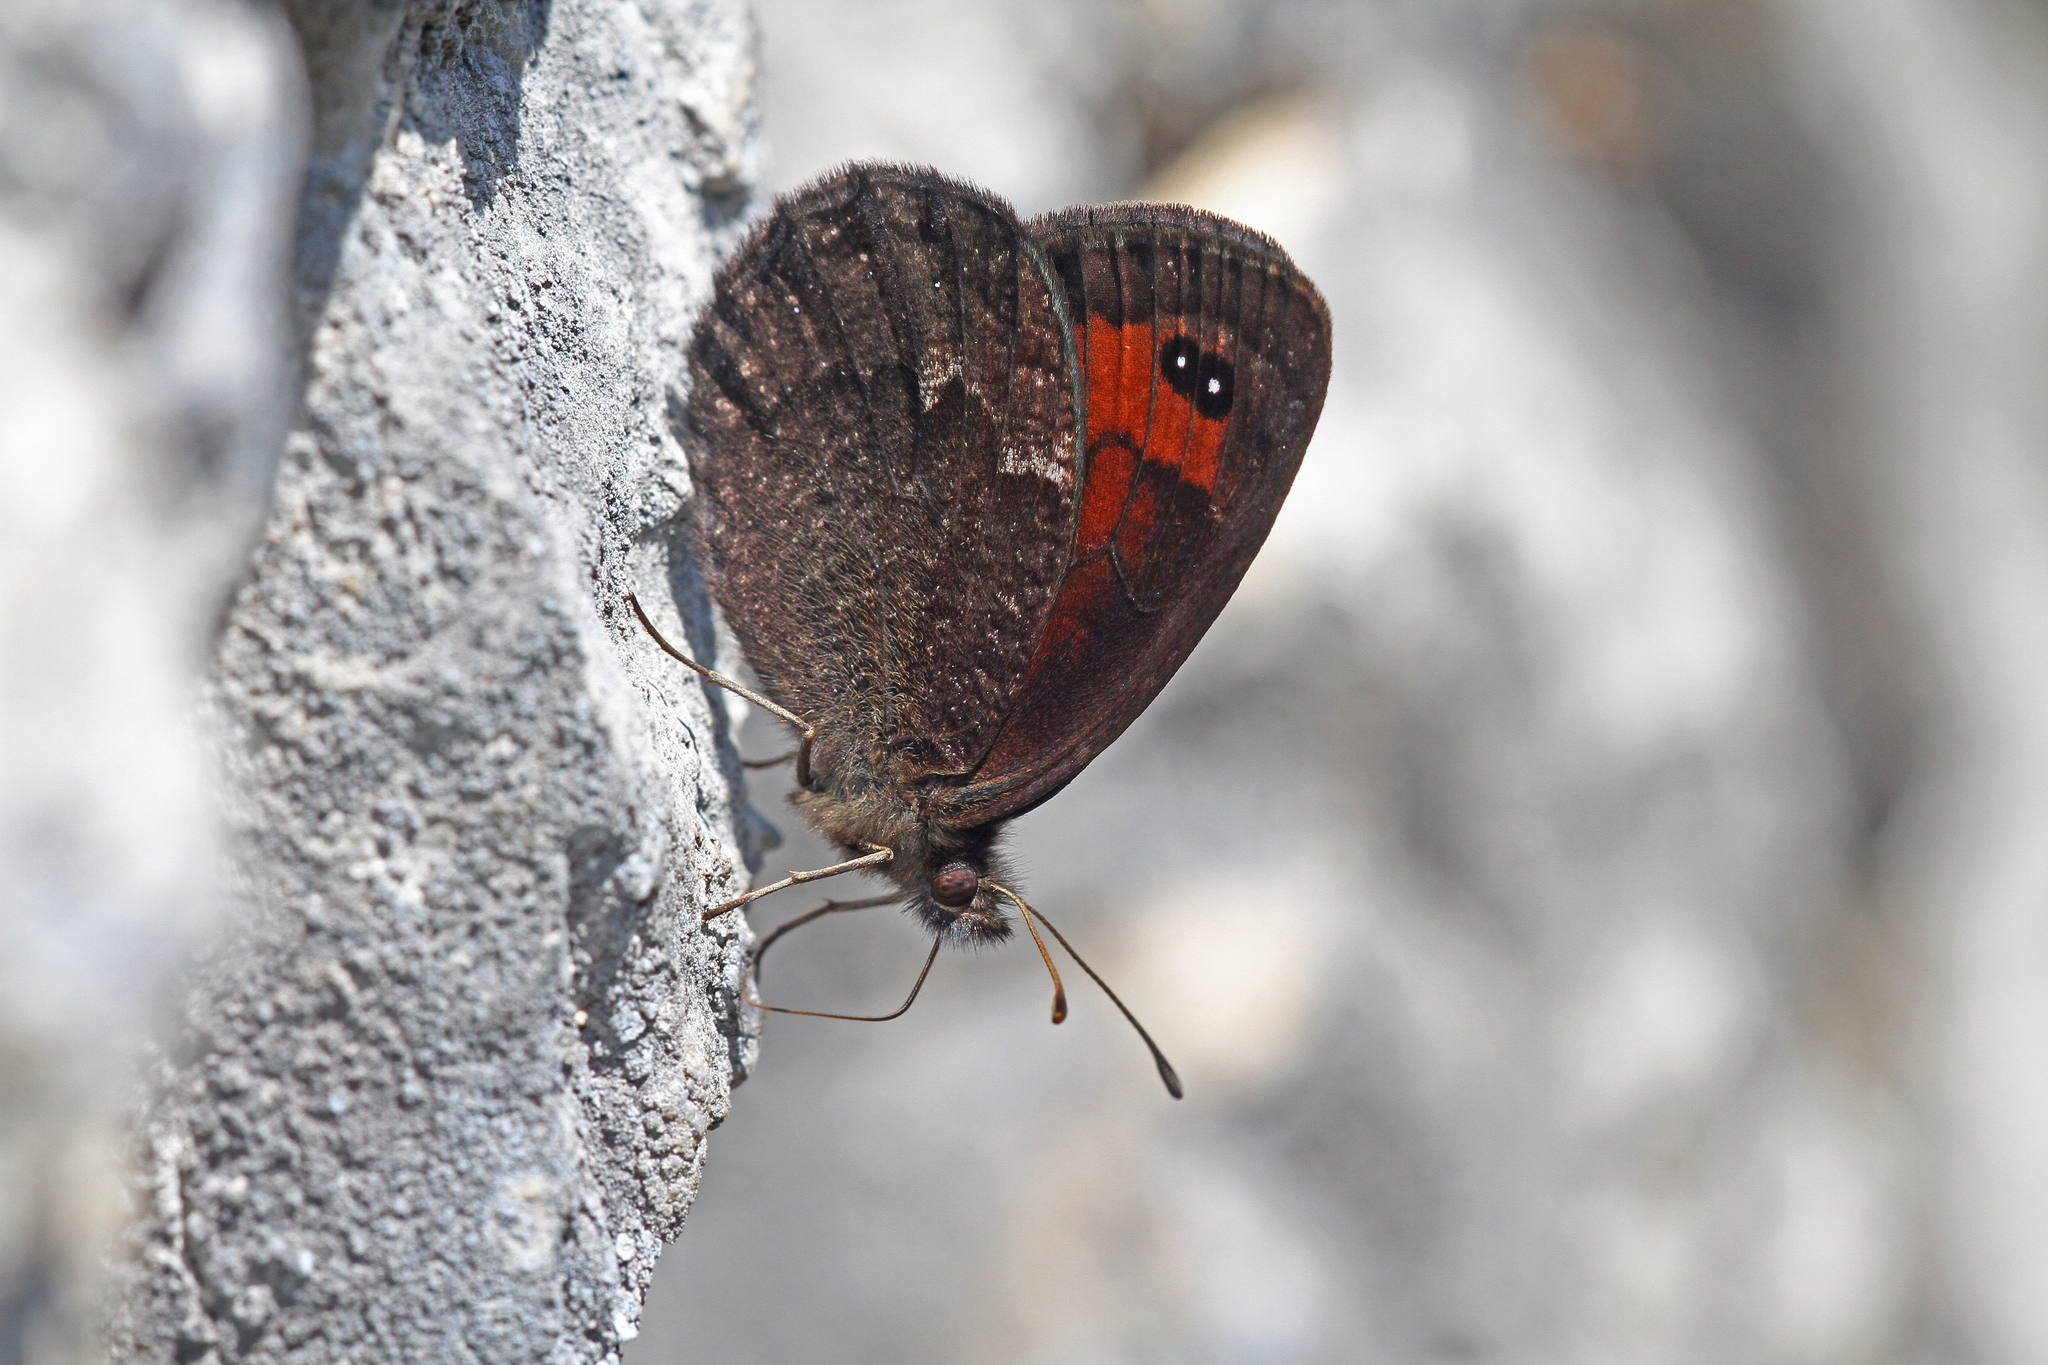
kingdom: Animalia
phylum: Arthropoda
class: Insecta
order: Lepidoptera
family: Nymphalidae
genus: Callerebia
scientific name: Callerebia mani
